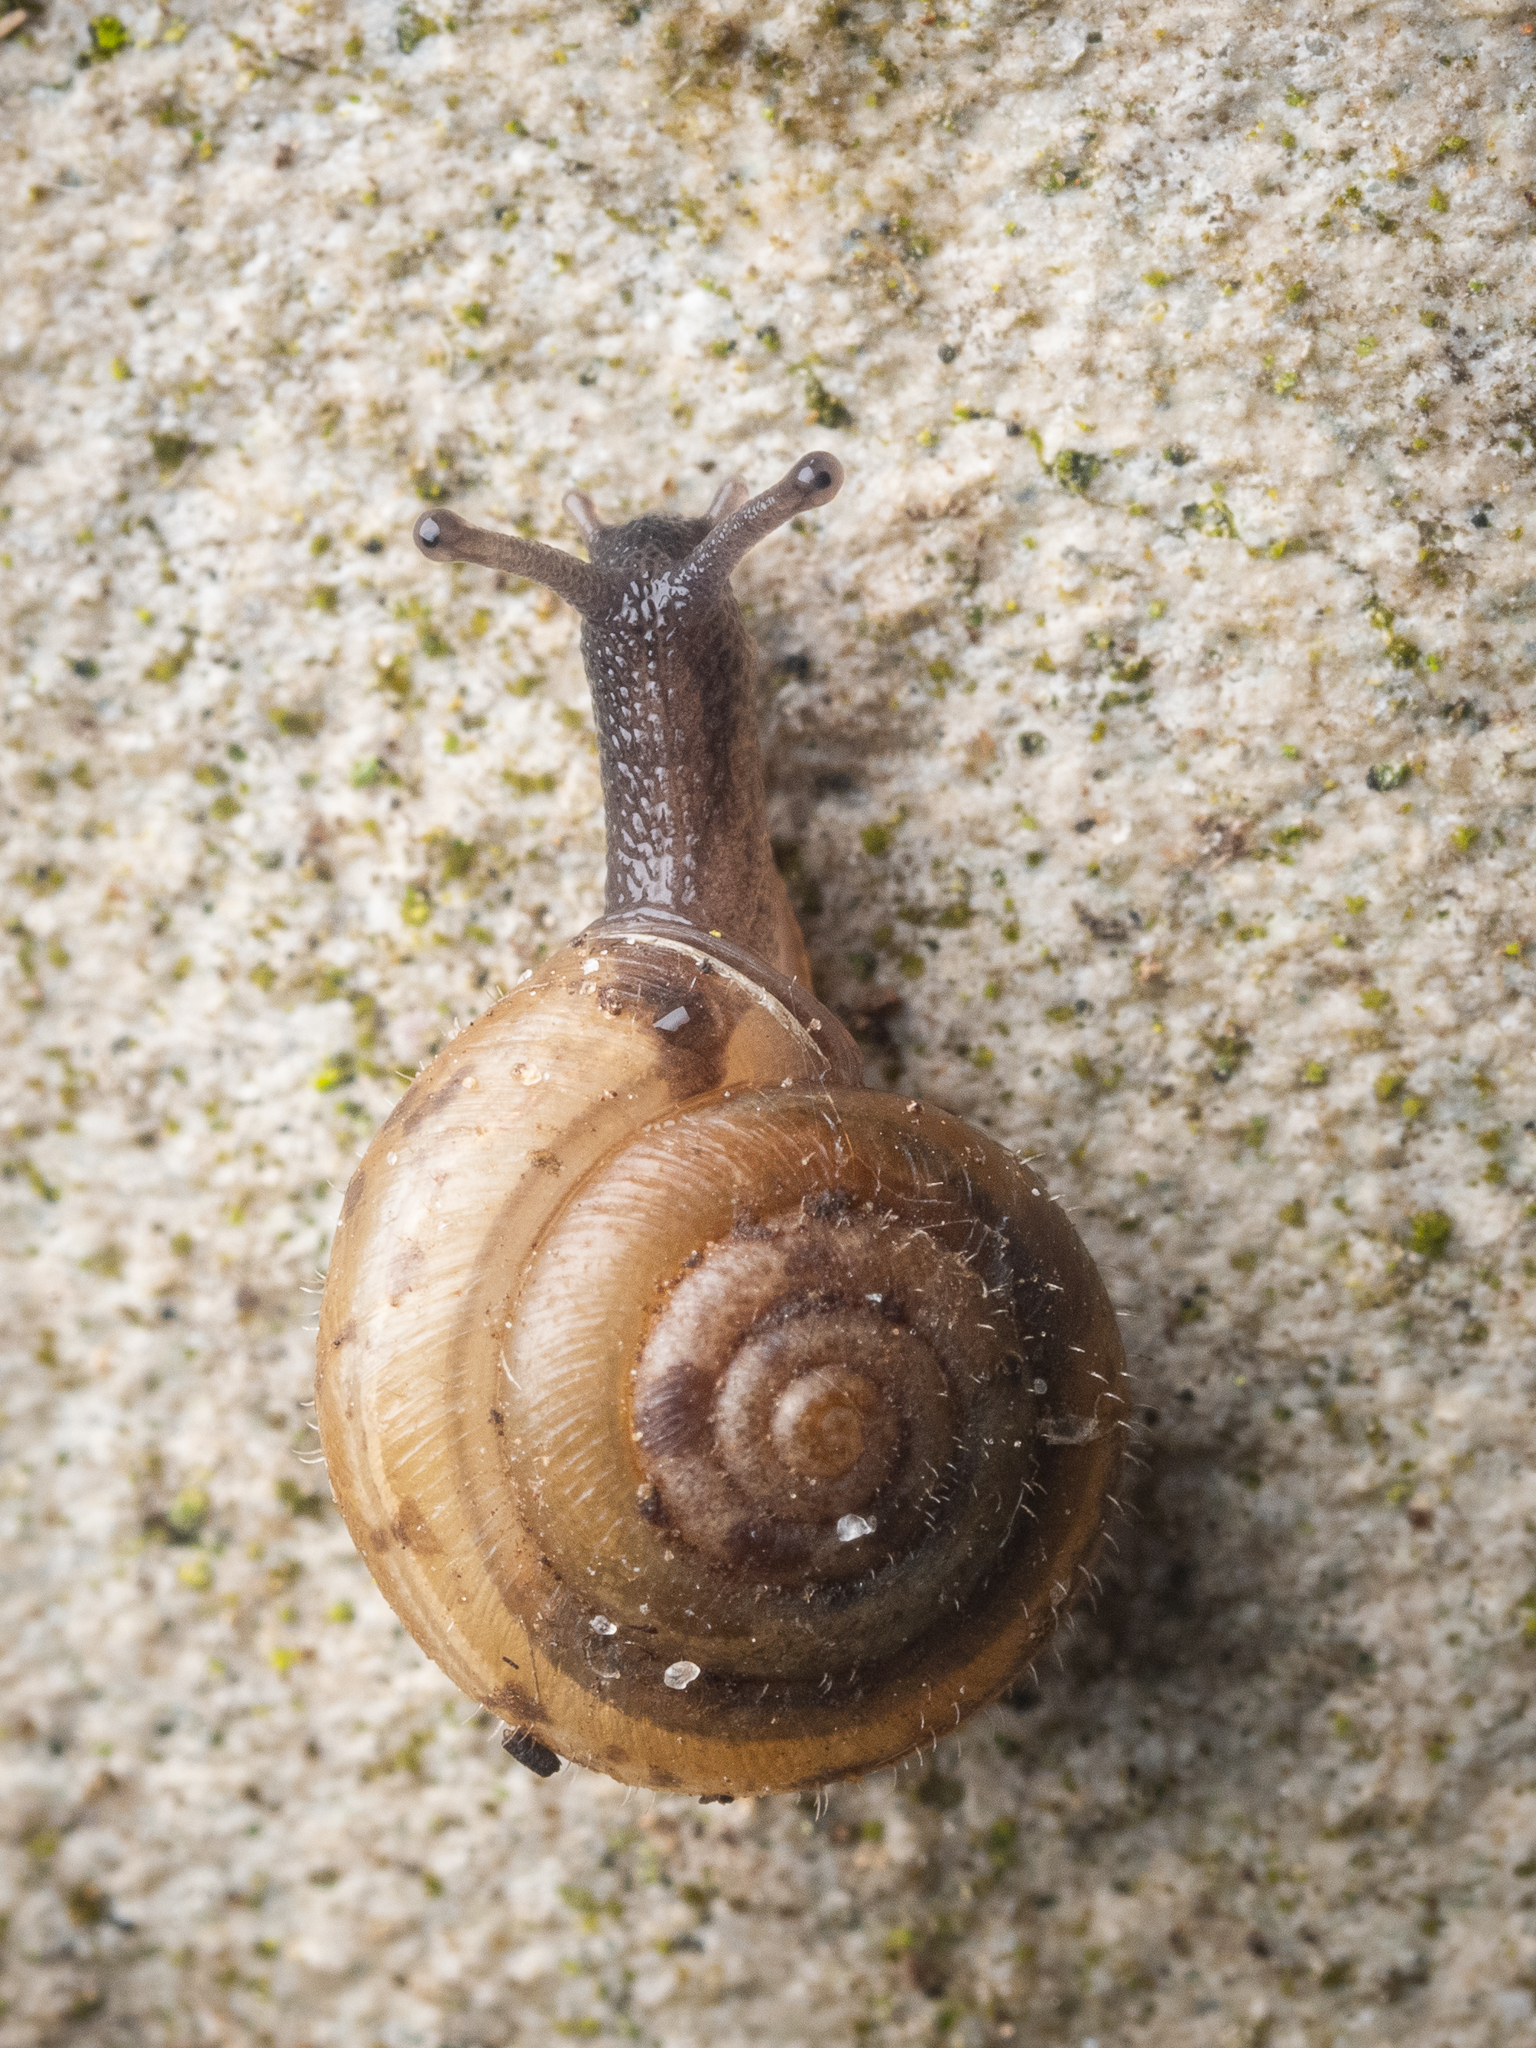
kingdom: Animalia
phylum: Mollusca
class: Gastropoda
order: Stylommatophora
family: Hygromiidae
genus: Trochulus
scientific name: Trochulus hispidus
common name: Hairy snail
